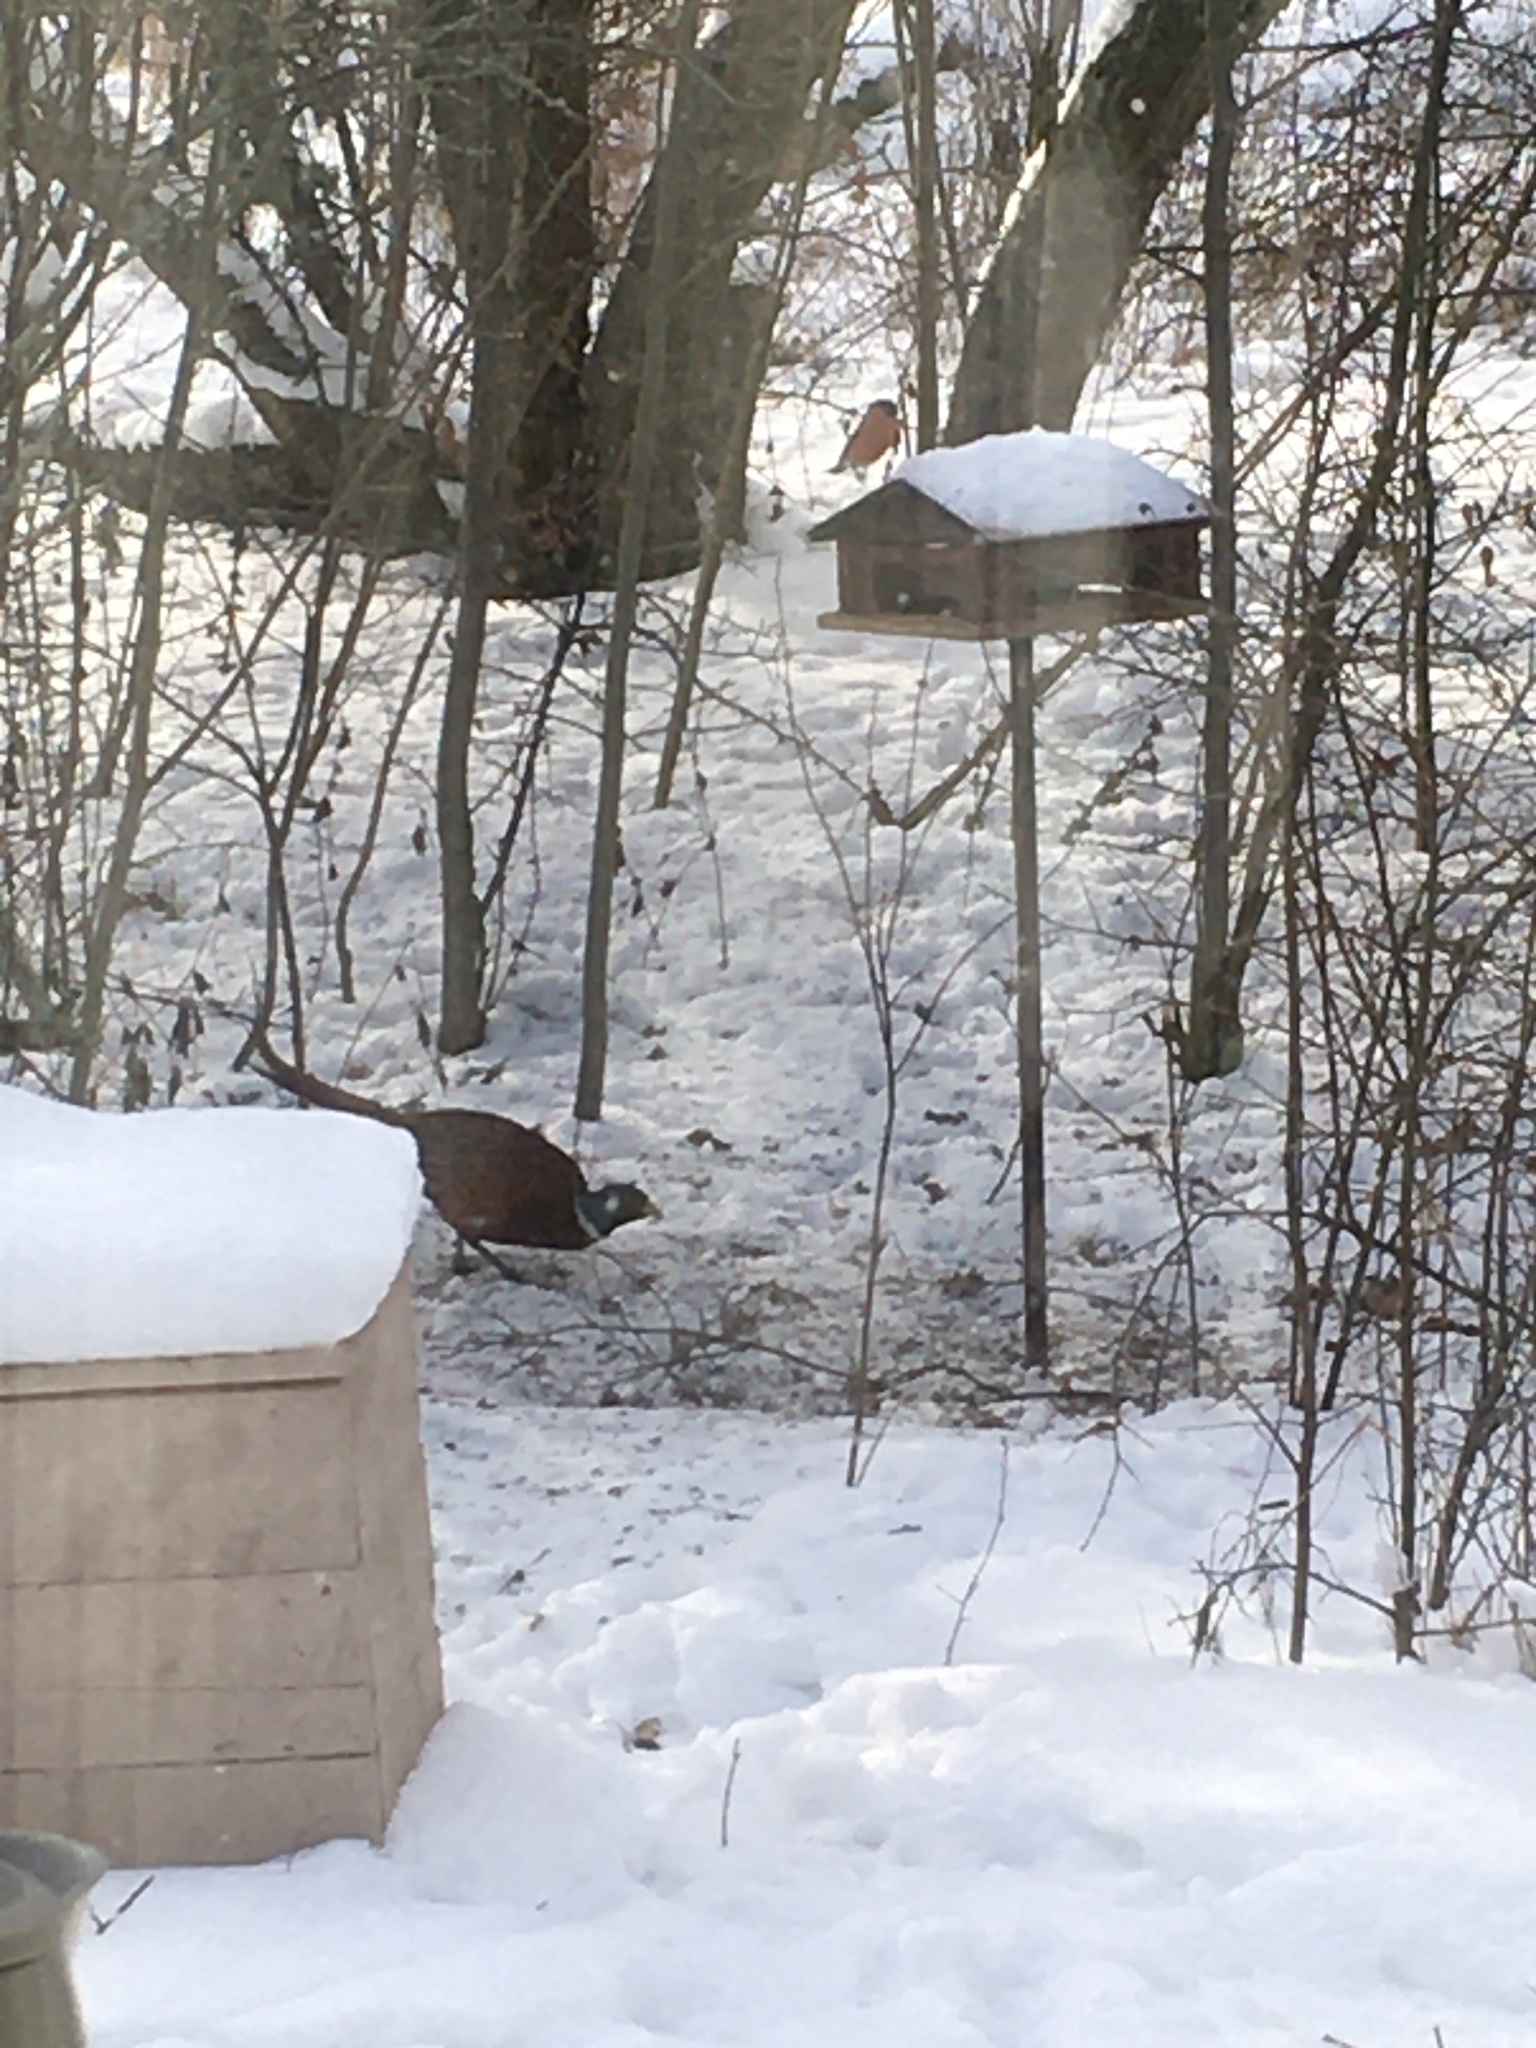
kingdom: Animalia
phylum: Chordata
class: Aves
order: Galliformes
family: Phasianidae
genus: Phasianus
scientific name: Phasianus colchicus
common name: Common pheasant
